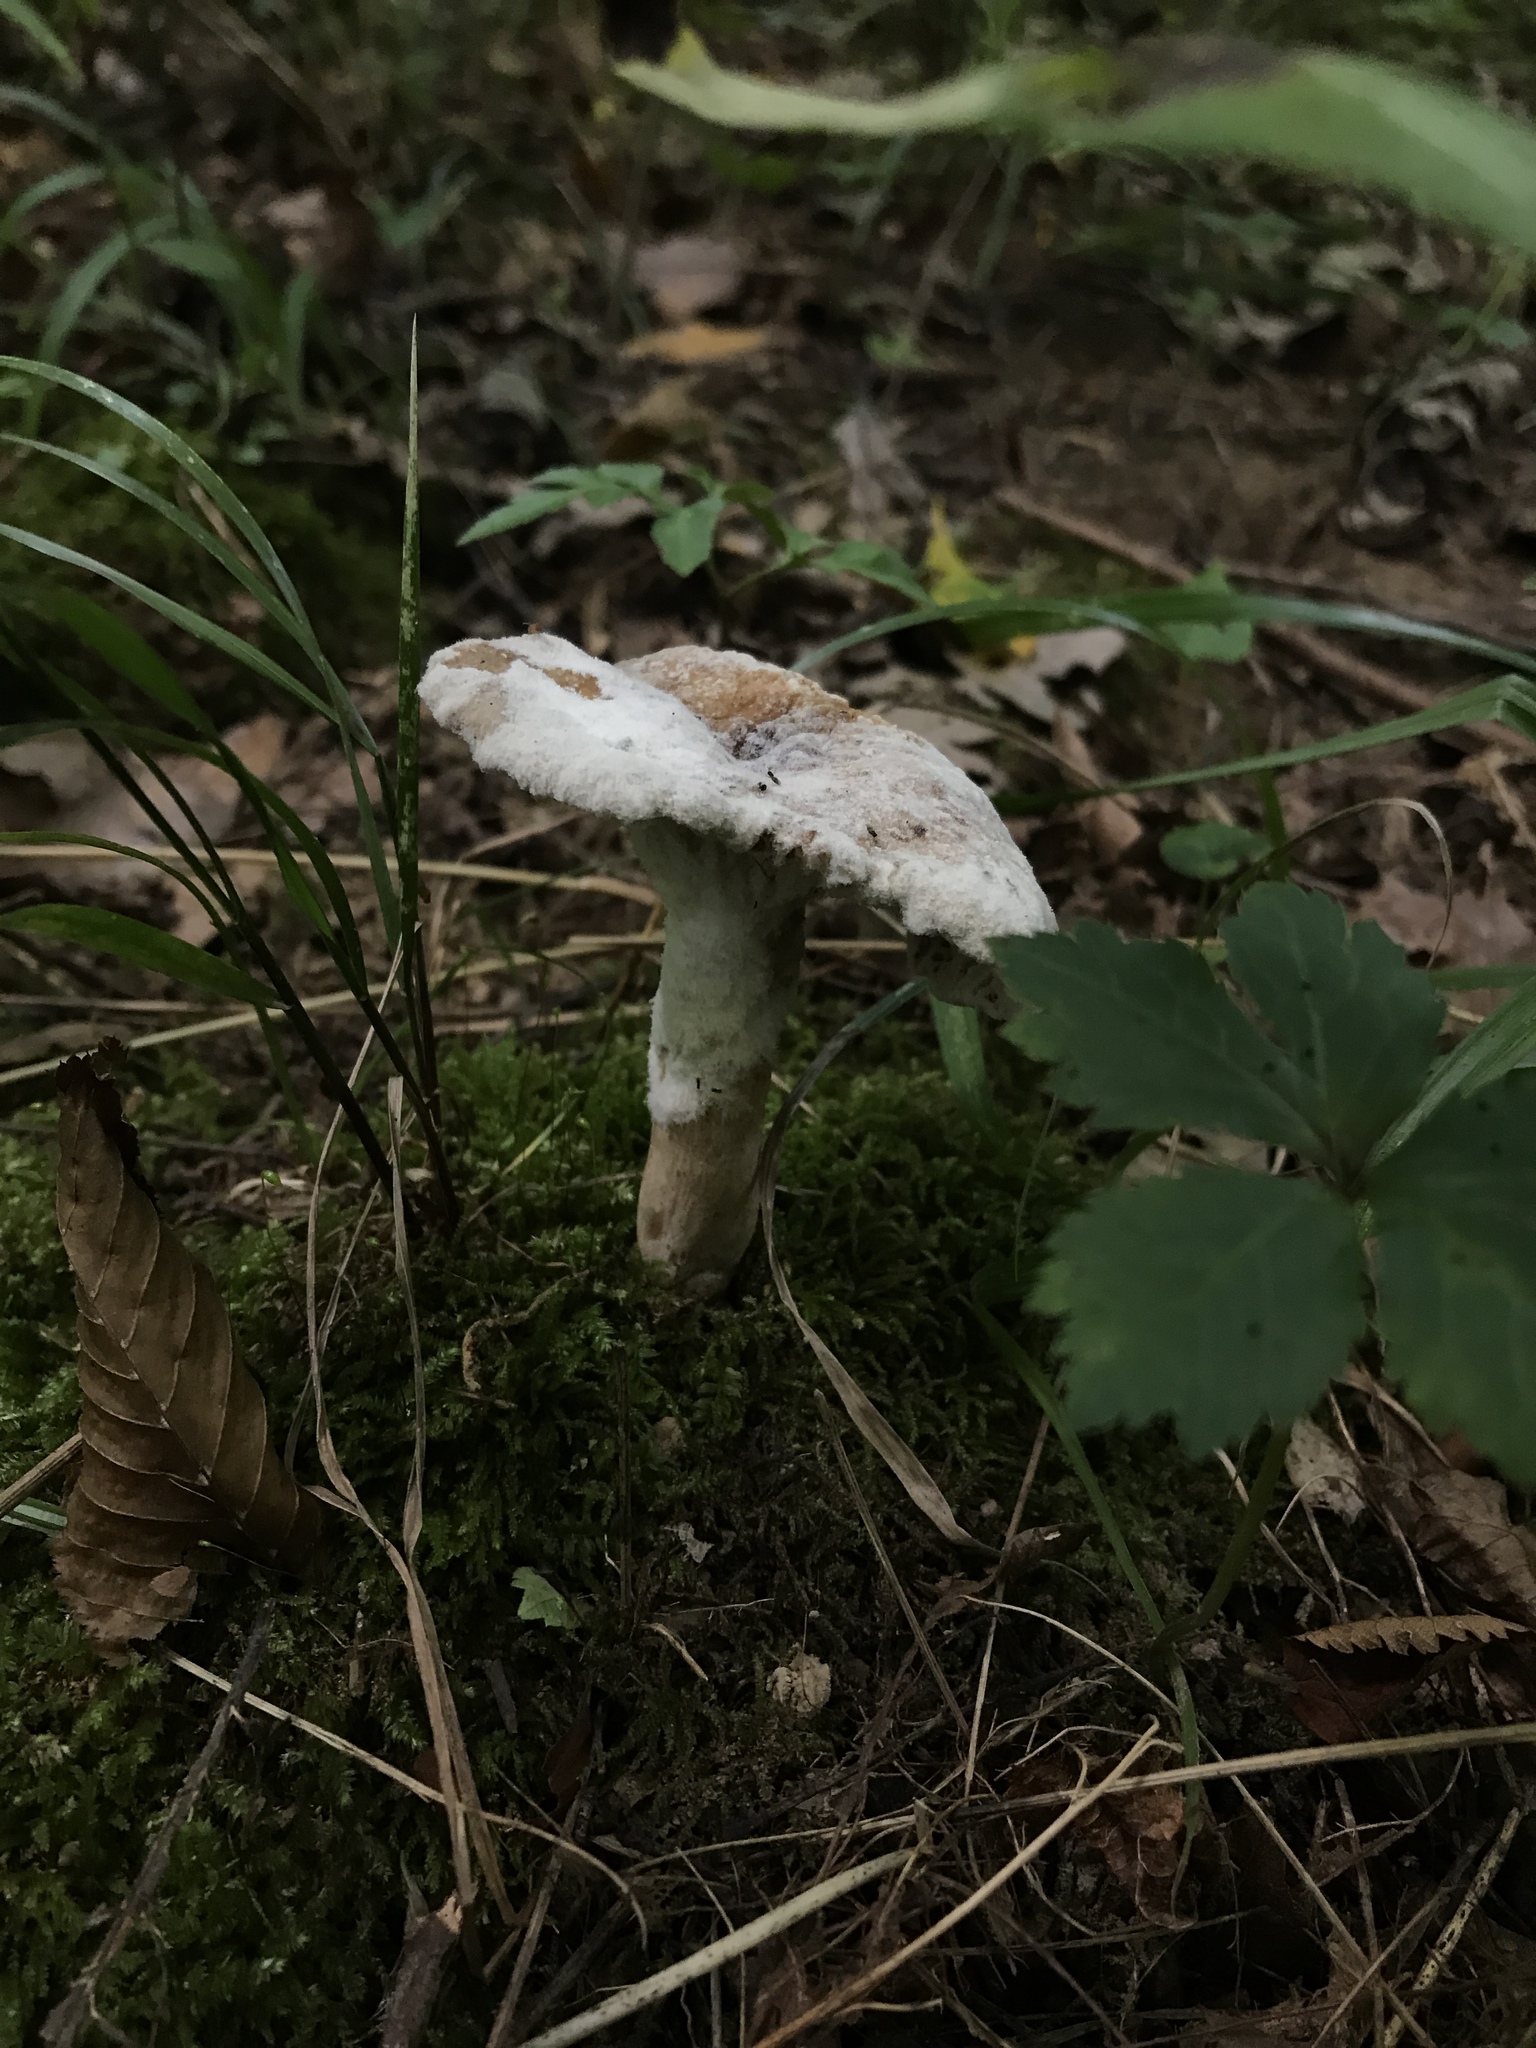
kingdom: Fungi
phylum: Ascomycota
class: Sordariomycetes
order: Hypocreales
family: Hypocreaceae
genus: Hypomyces
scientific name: Hypomyces armeniacus
